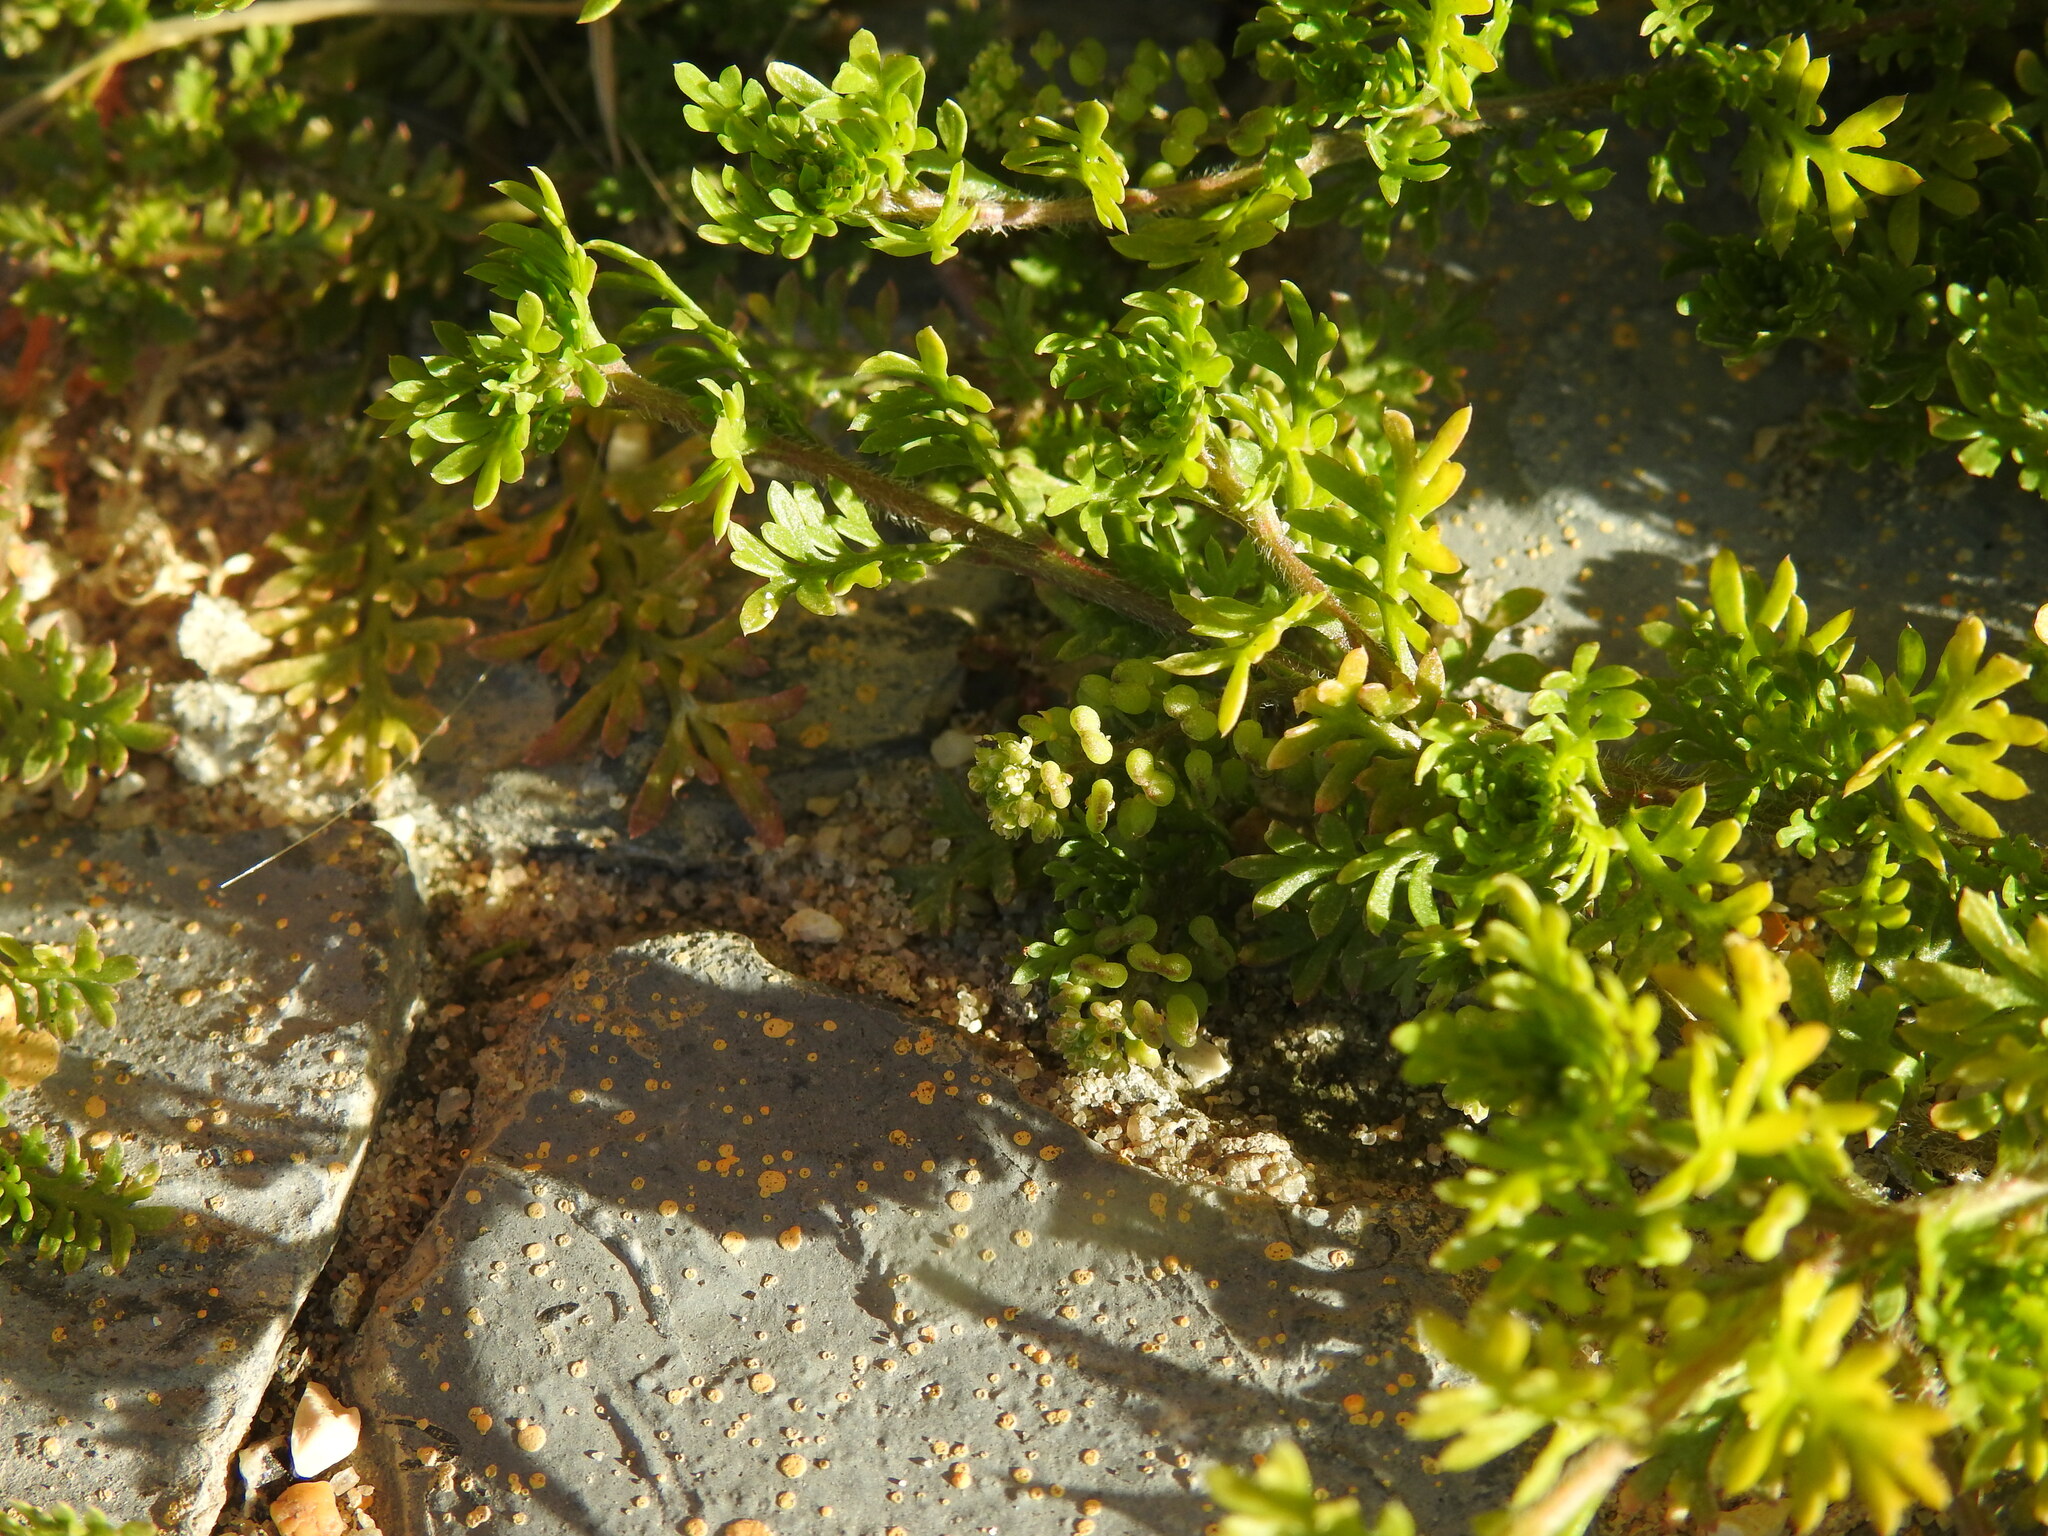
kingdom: Plantae
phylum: Tracheophyta
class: Magnoliopsida
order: Brassicales
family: Brassicaceae
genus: Lepidium
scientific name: Lepidium didymum
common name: Lesser swinecress
